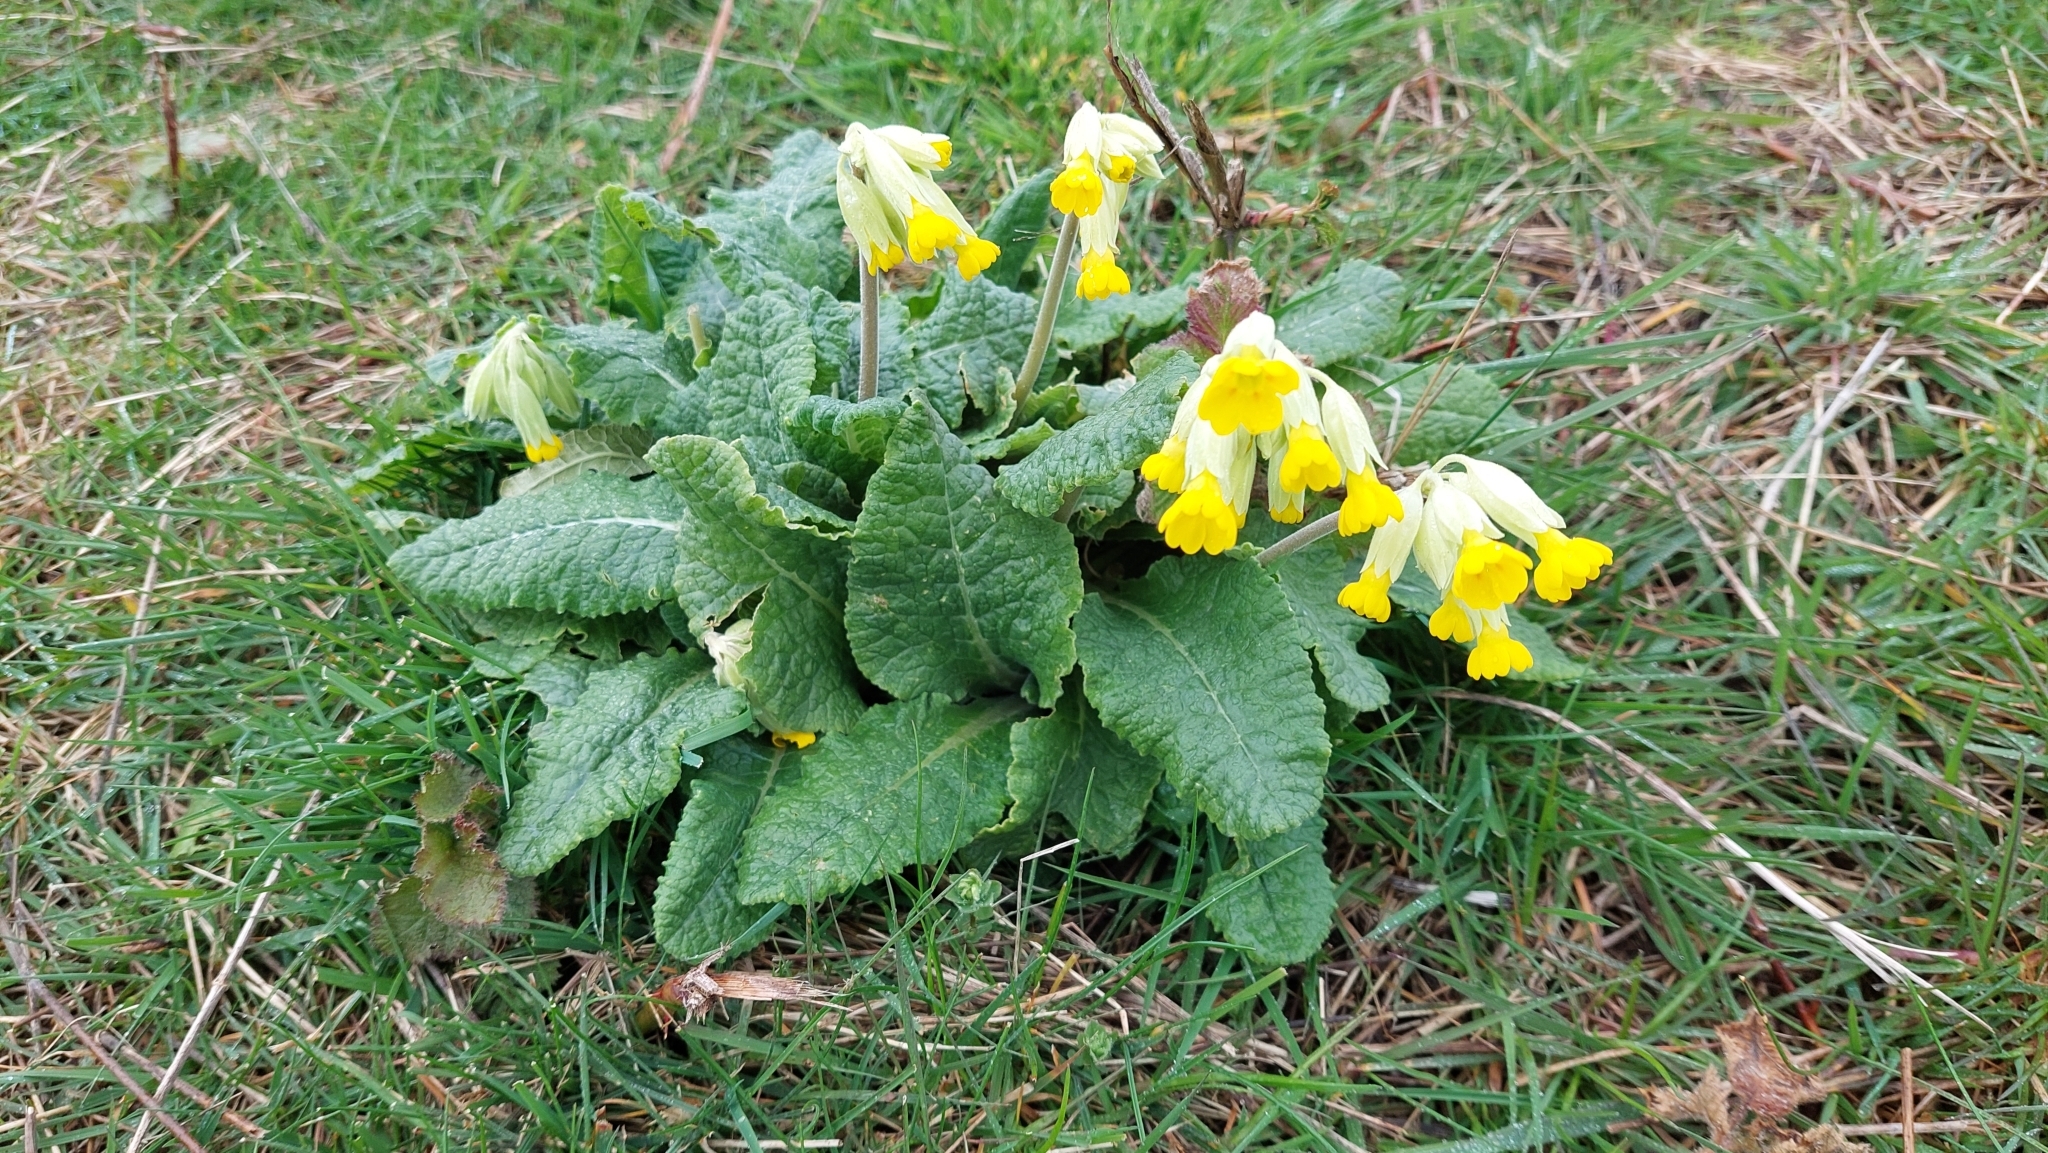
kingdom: Plantae
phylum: Tracheophyta
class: Magnoliopsida
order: Ericales
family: Primulaceae
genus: Primula
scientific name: Primula veris
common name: Cowslip
